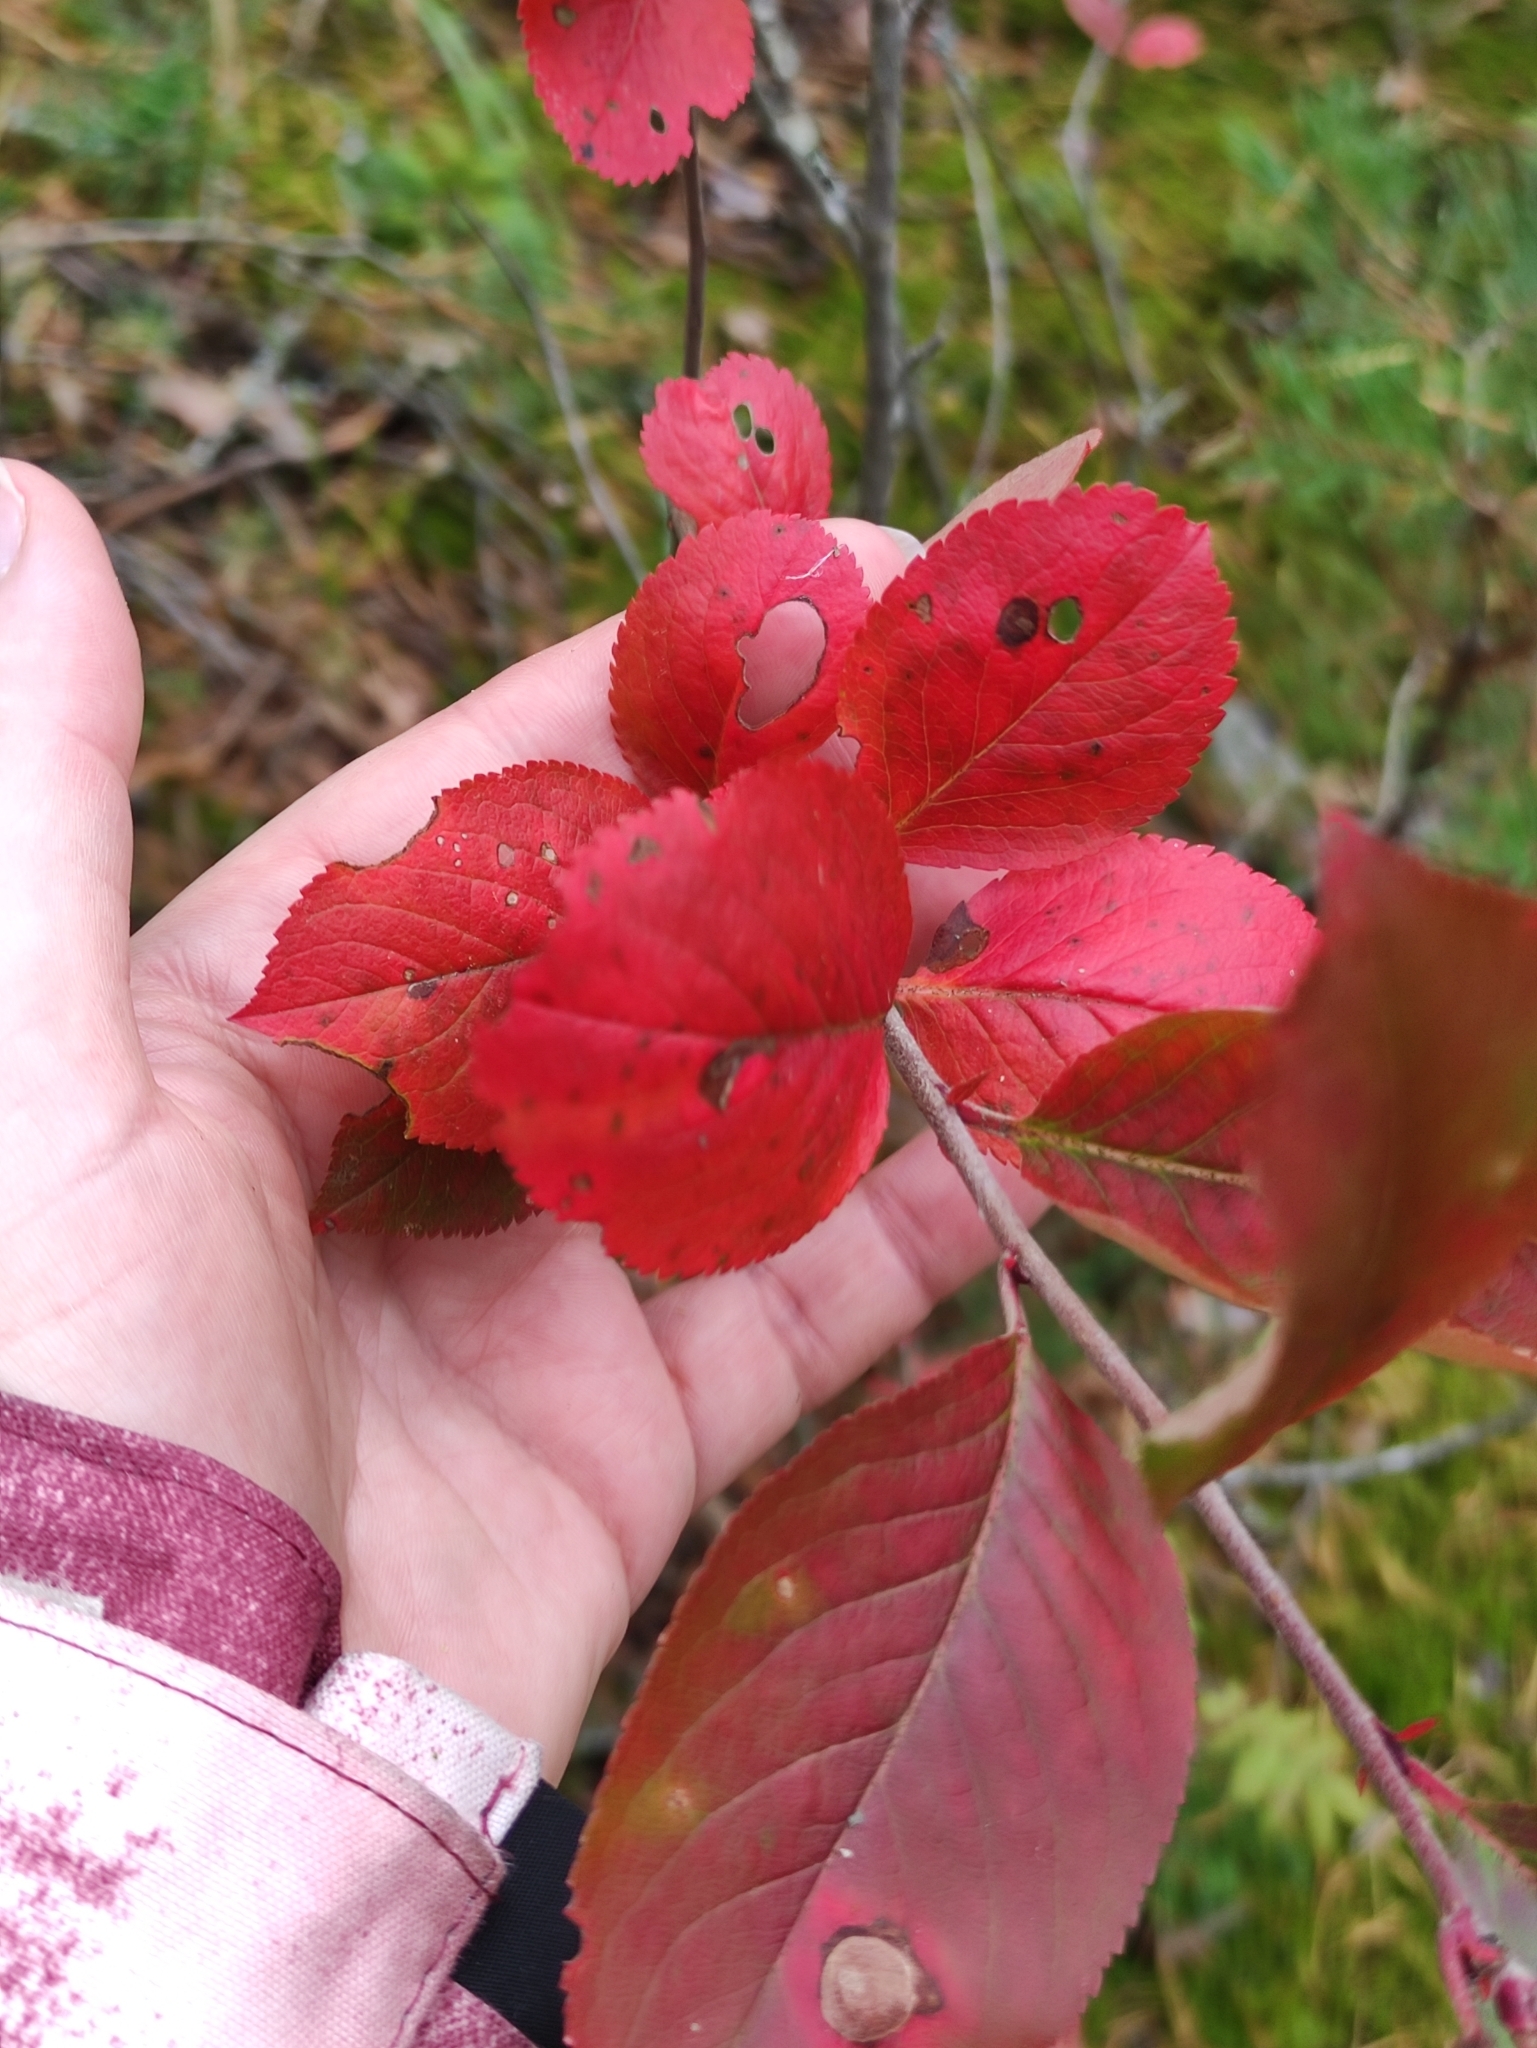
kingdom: Plantae
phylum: Tracheophyta
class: Magnoliopsida
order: Rosales
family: Rosaceae
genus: Sorbaronia
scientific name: Sorbaronia arsenii
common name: Arsène's mountain-ash
